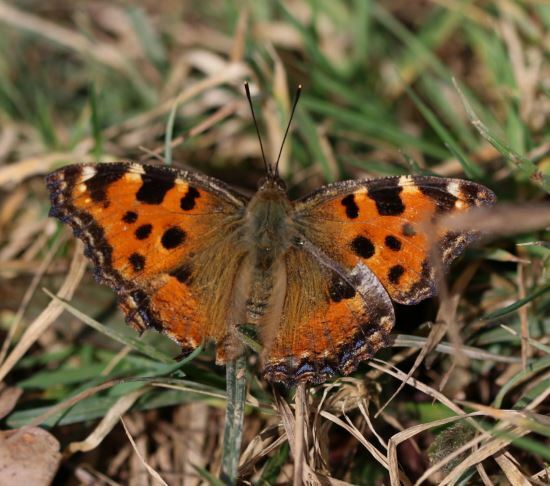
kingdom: Animalia
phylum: Arthropoda
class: Insecta
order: Lepidoptera
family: Nymphalidae
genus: Nymphalis
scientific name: Nymphalis polychloros
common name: Large tortoiseshell
